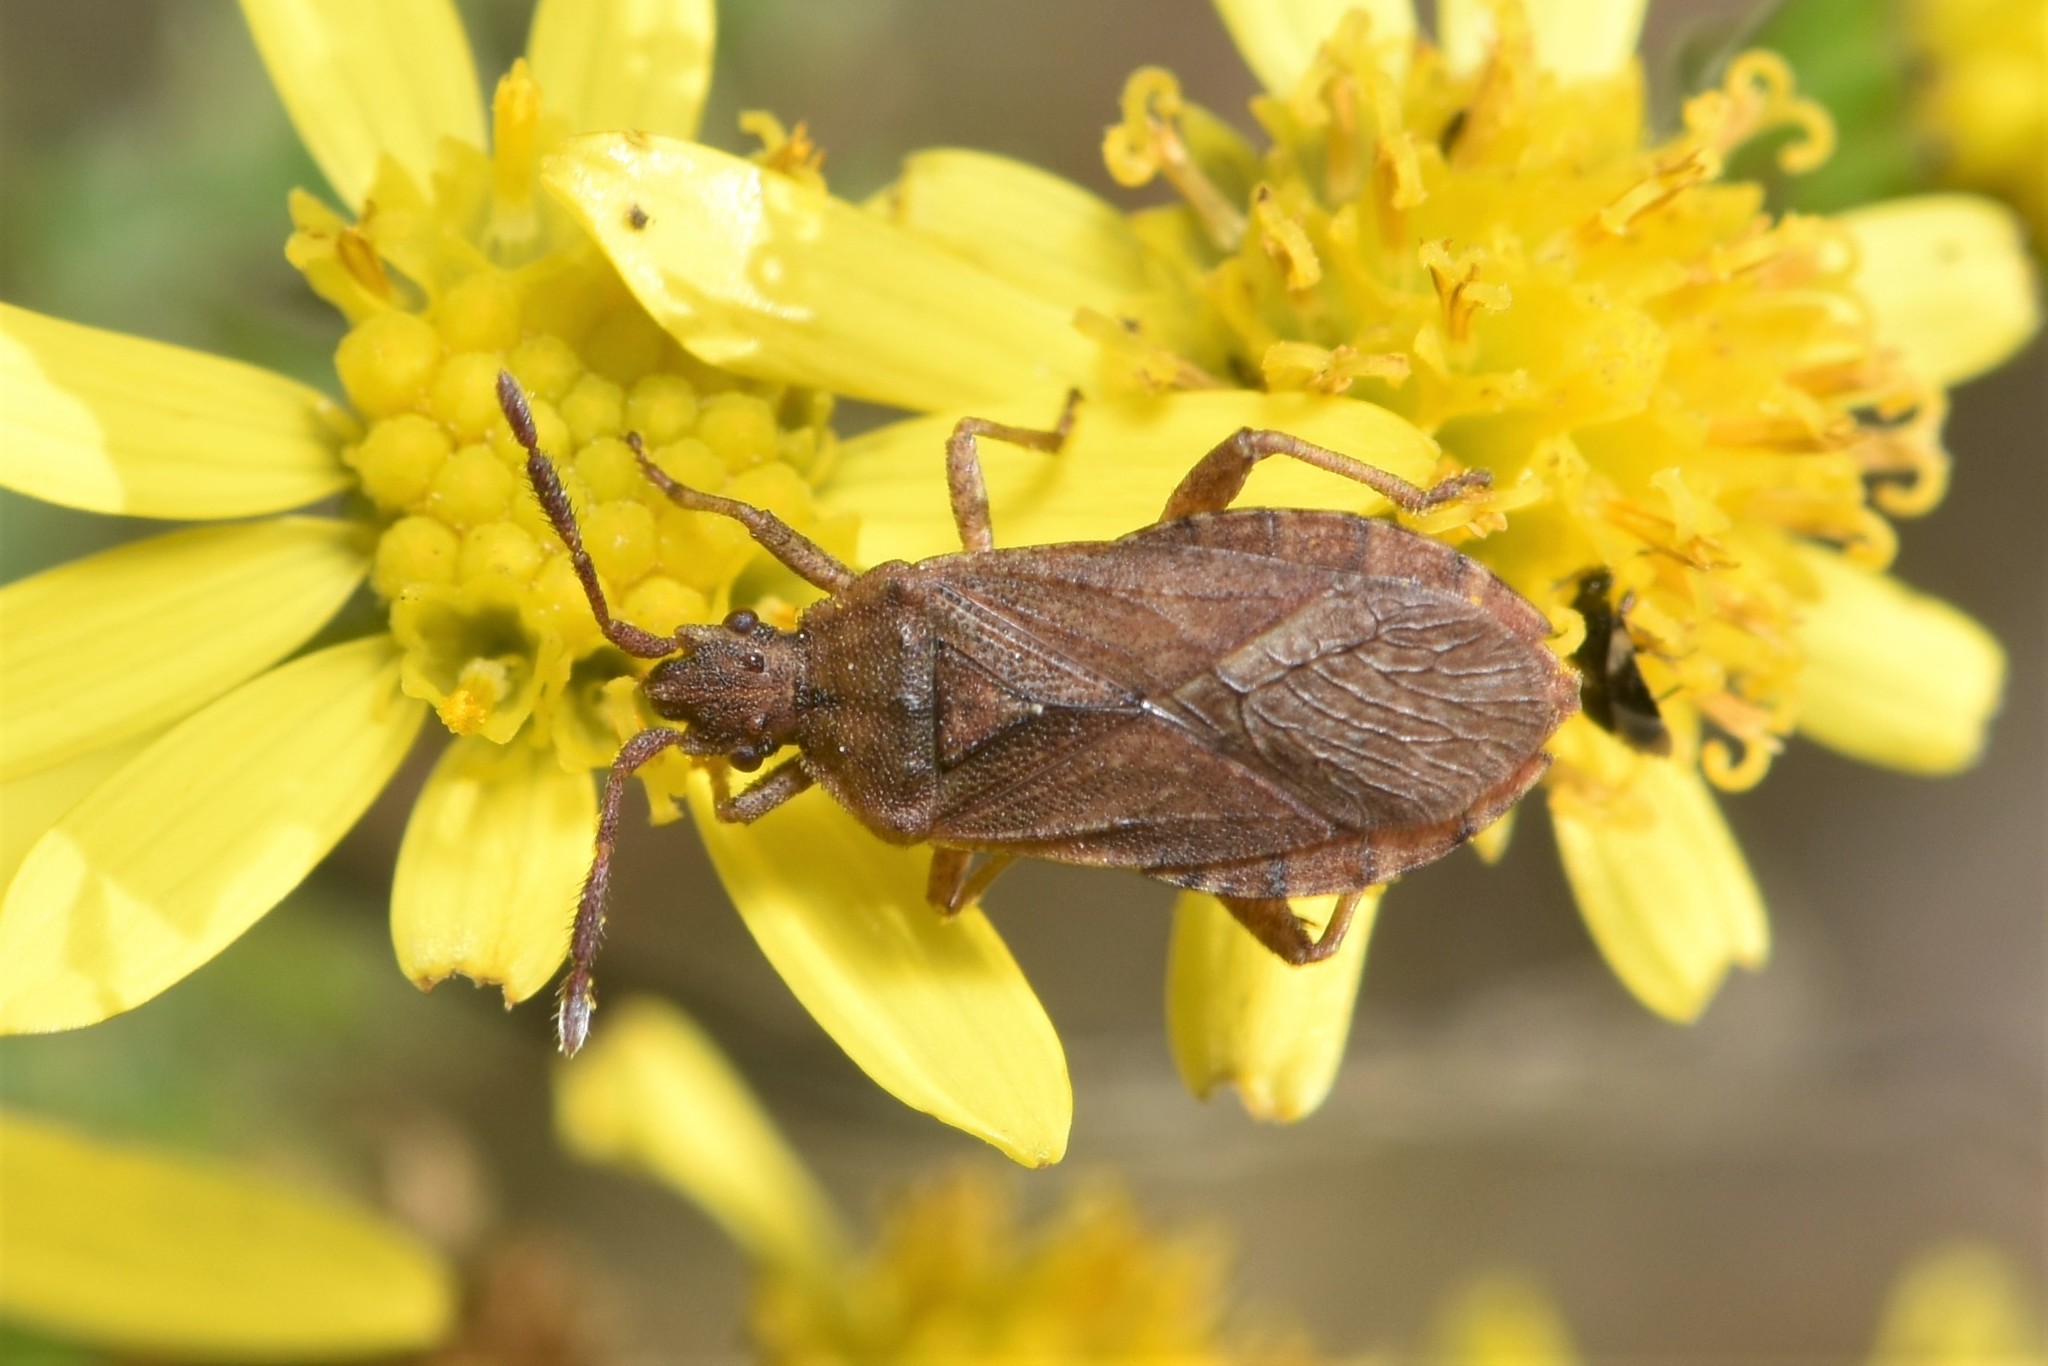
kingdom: Animalia
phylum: Arthropoda
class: Insecta
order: Hemiptera
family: Coreidae
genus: Ceraleptus
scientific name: Ceraleptus pacificus
